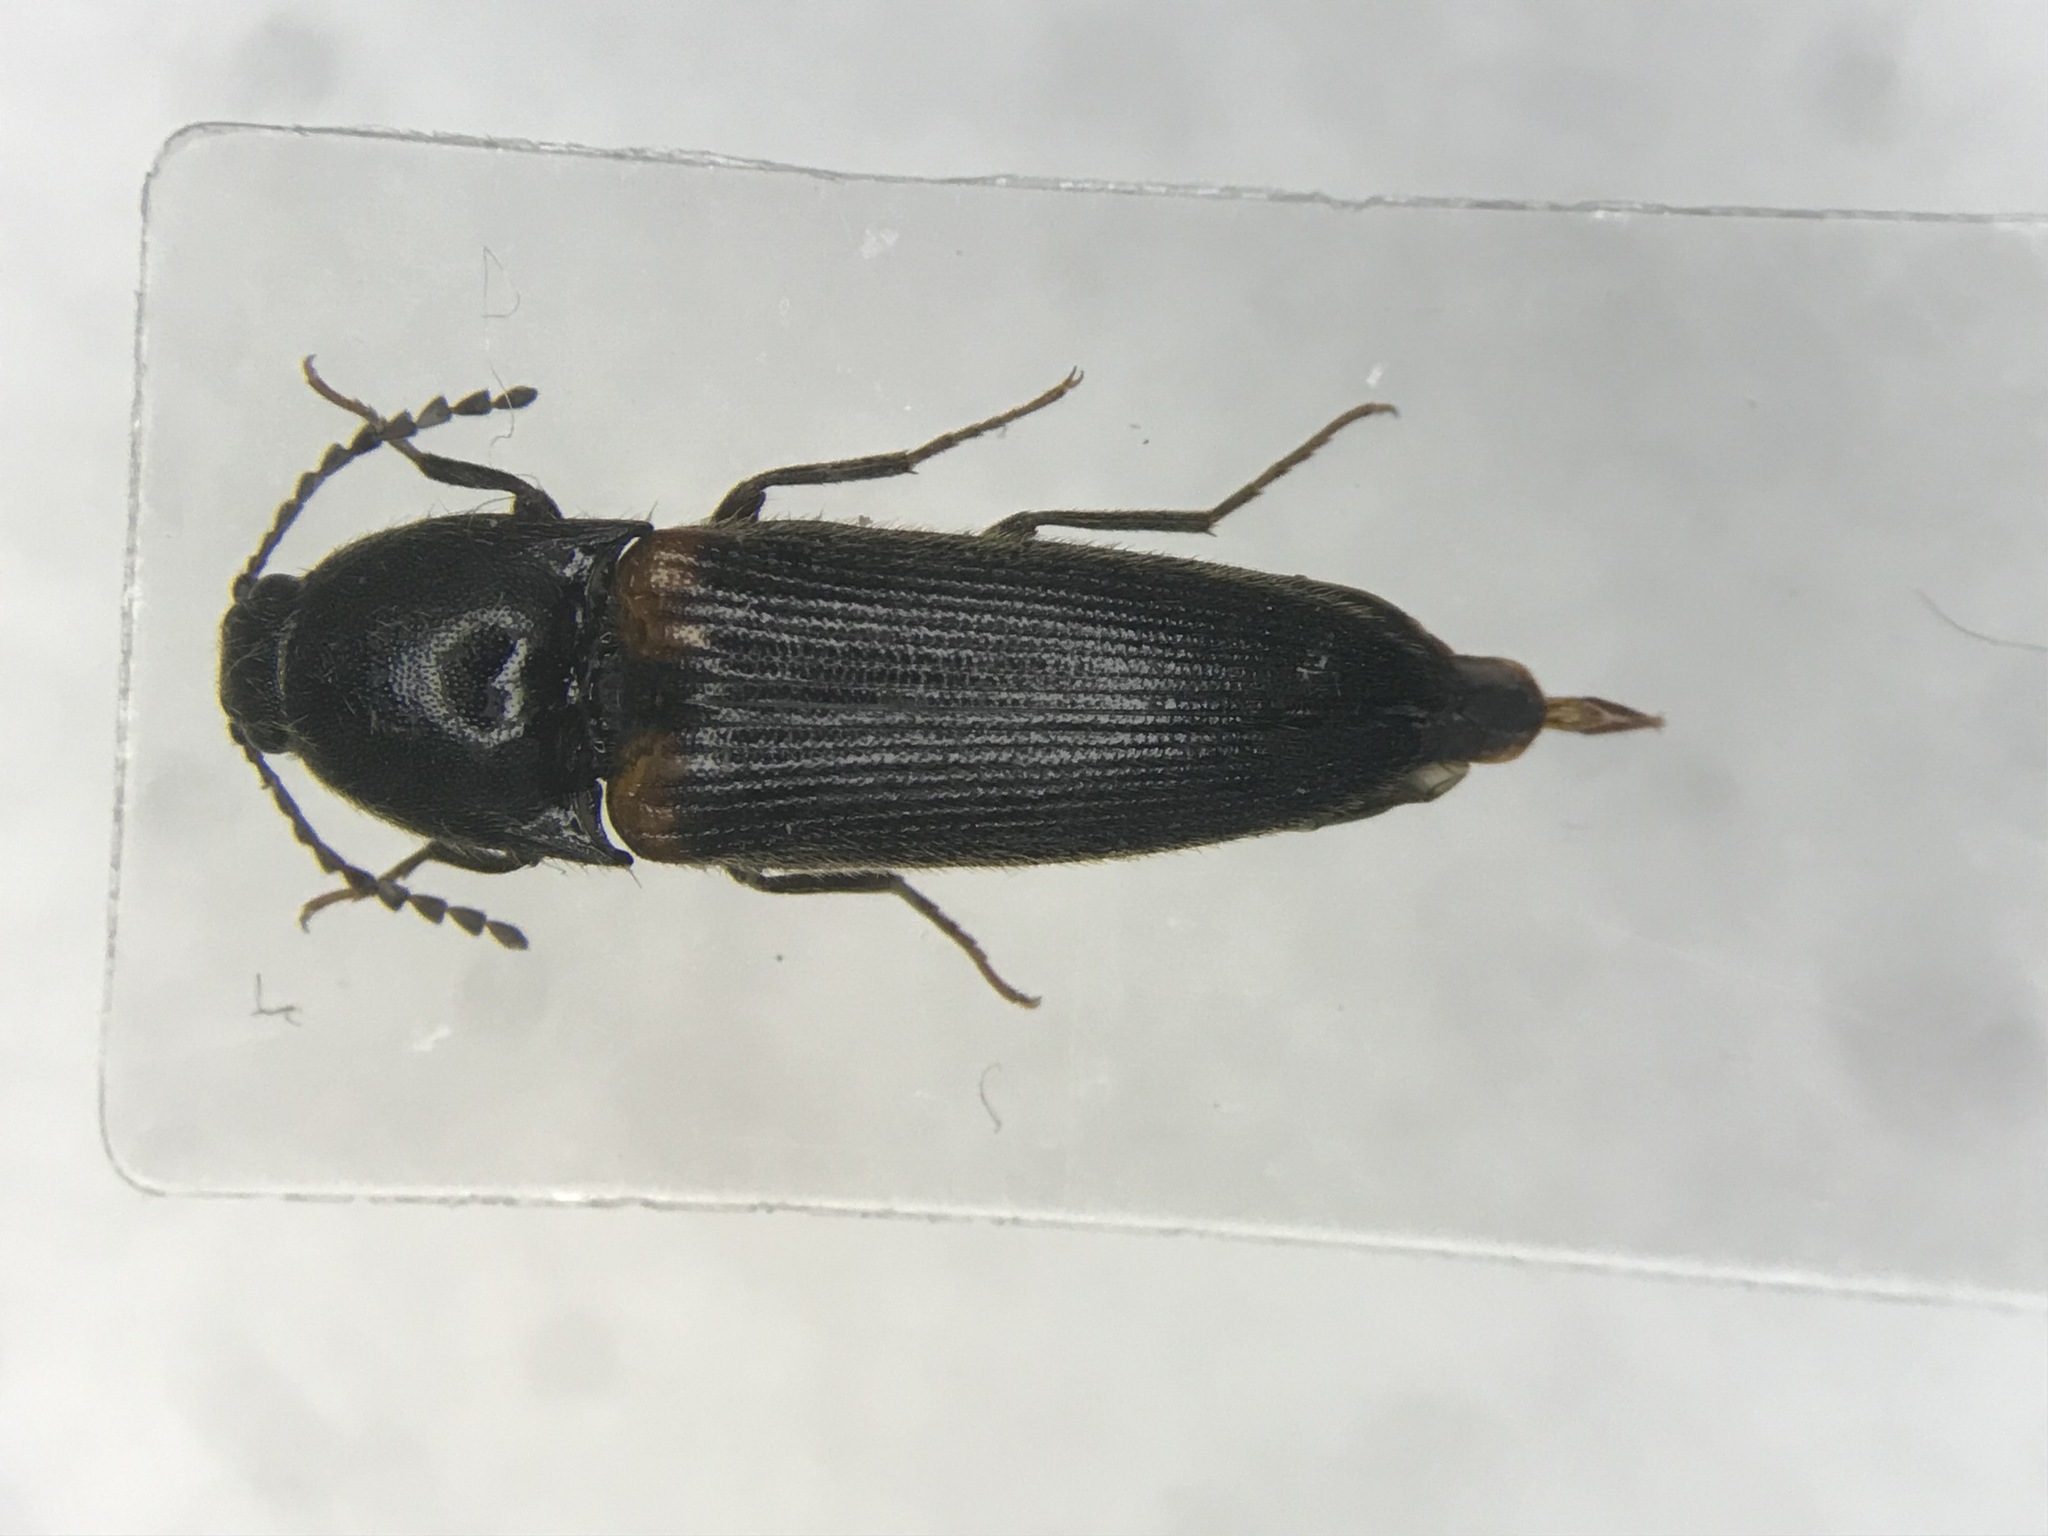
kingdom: Animalia
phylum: Arthropoda
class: Insecta
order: Coleoptera
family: Elateridae
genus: Ampedus
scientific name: Ampedus protervus
